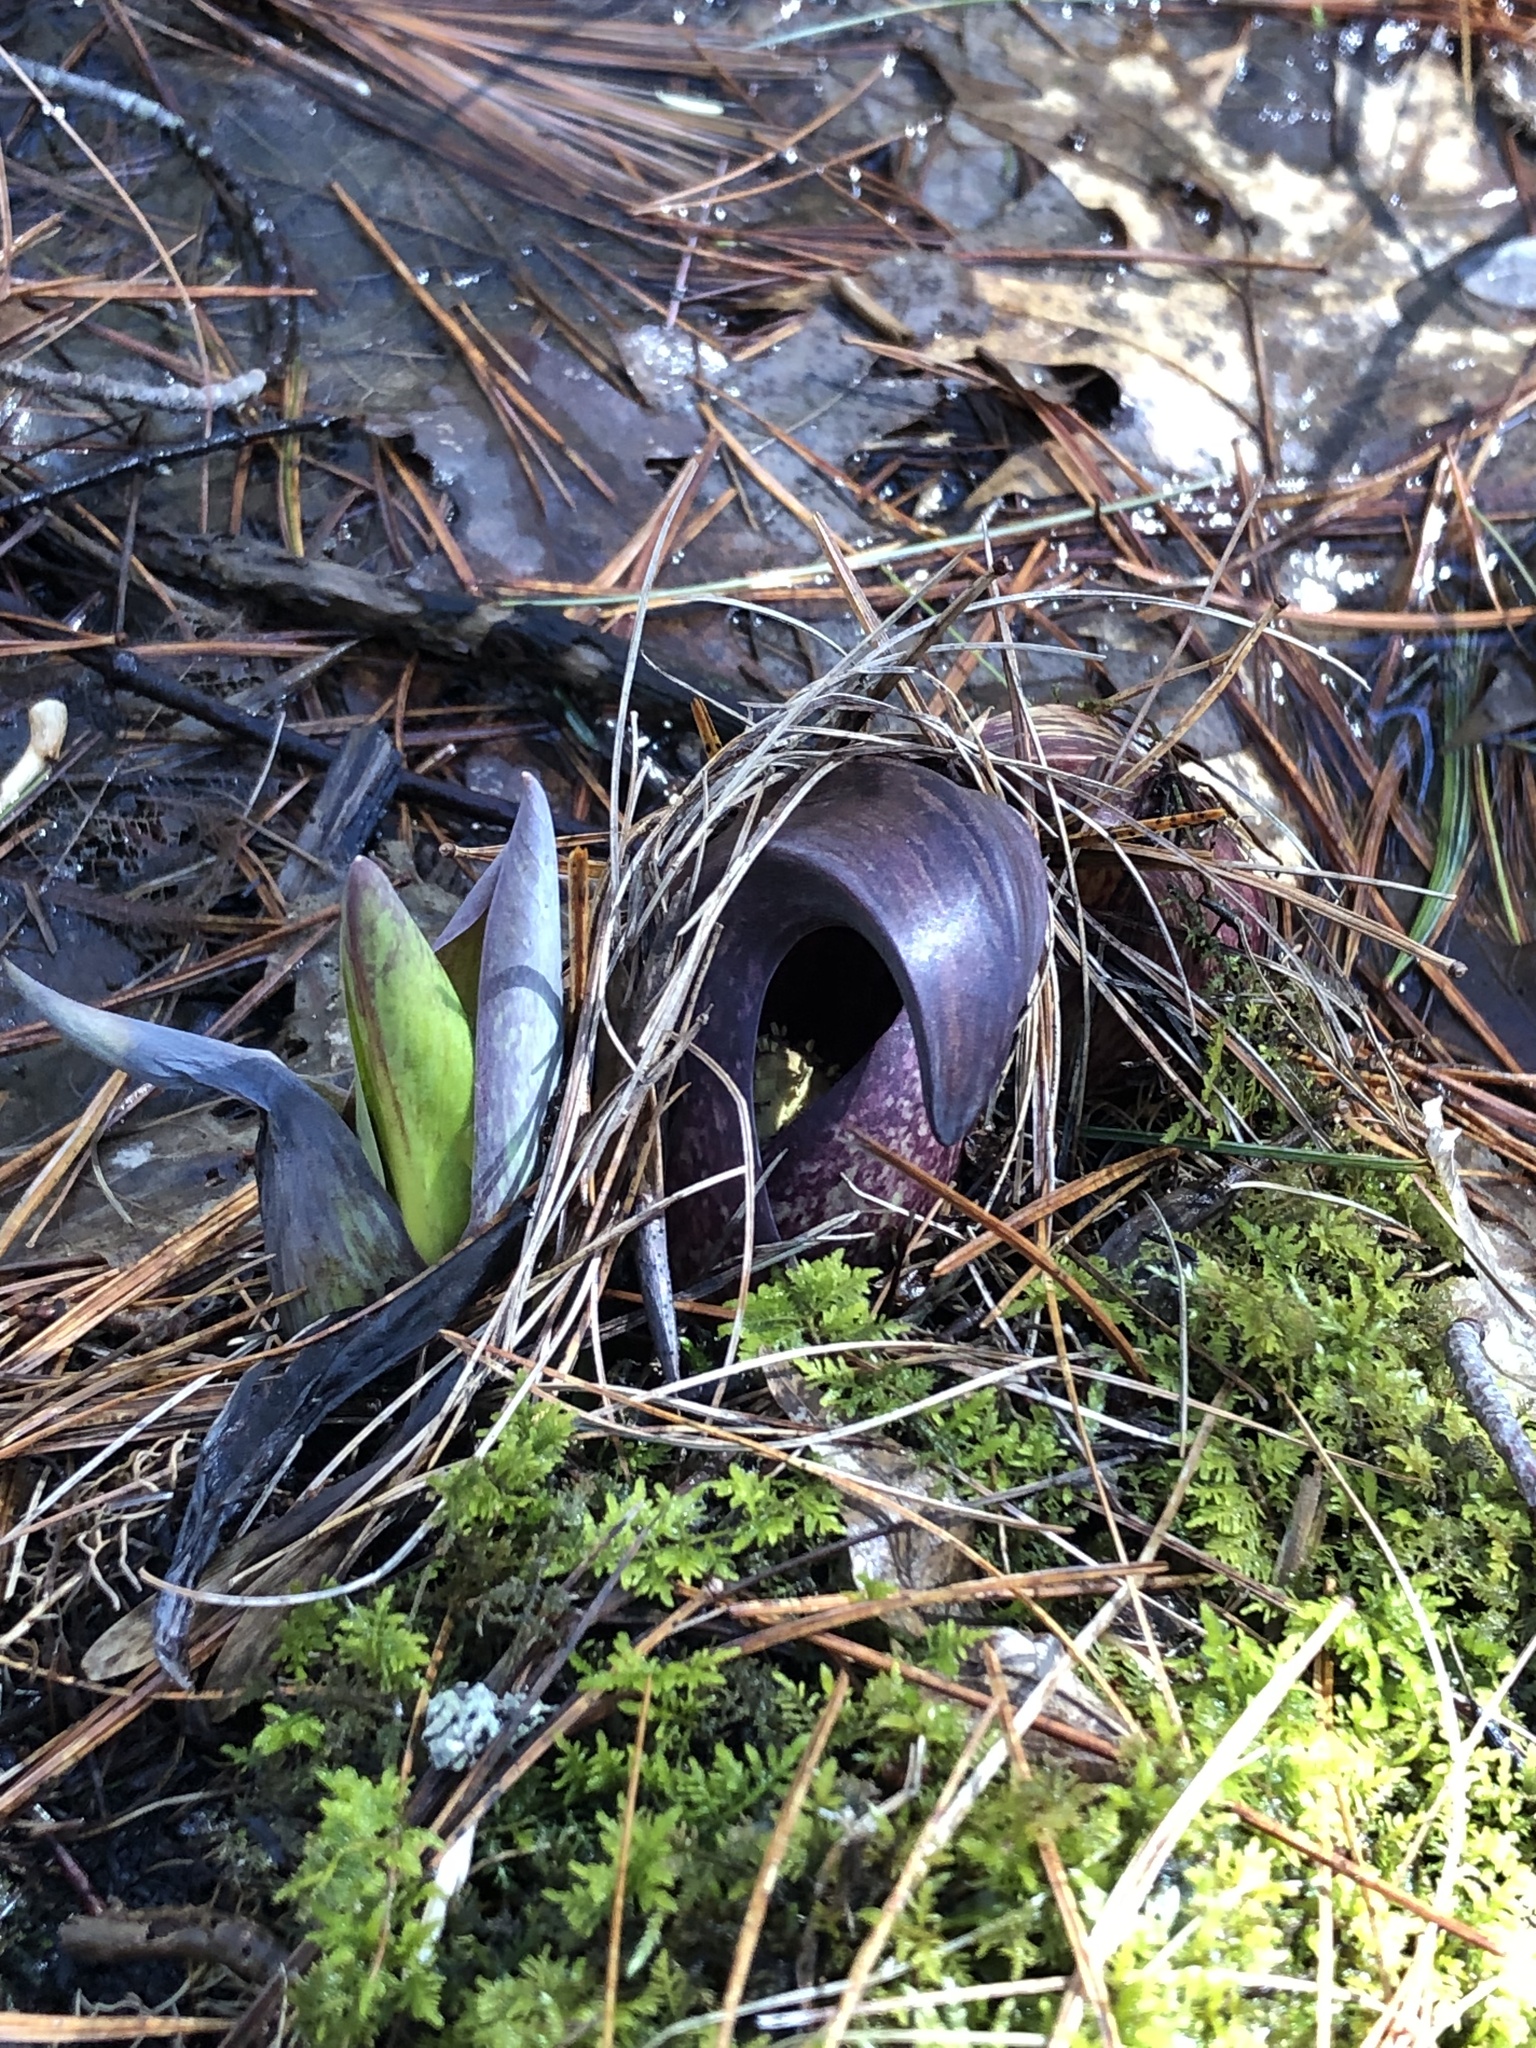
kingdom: Plantae
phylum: Tracheophyta
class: Liliopsida
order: Alismatales
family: Araceae
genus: Symplocarpus
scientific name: Symplocarpus foetidus
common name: Eastern skunk cabbage
